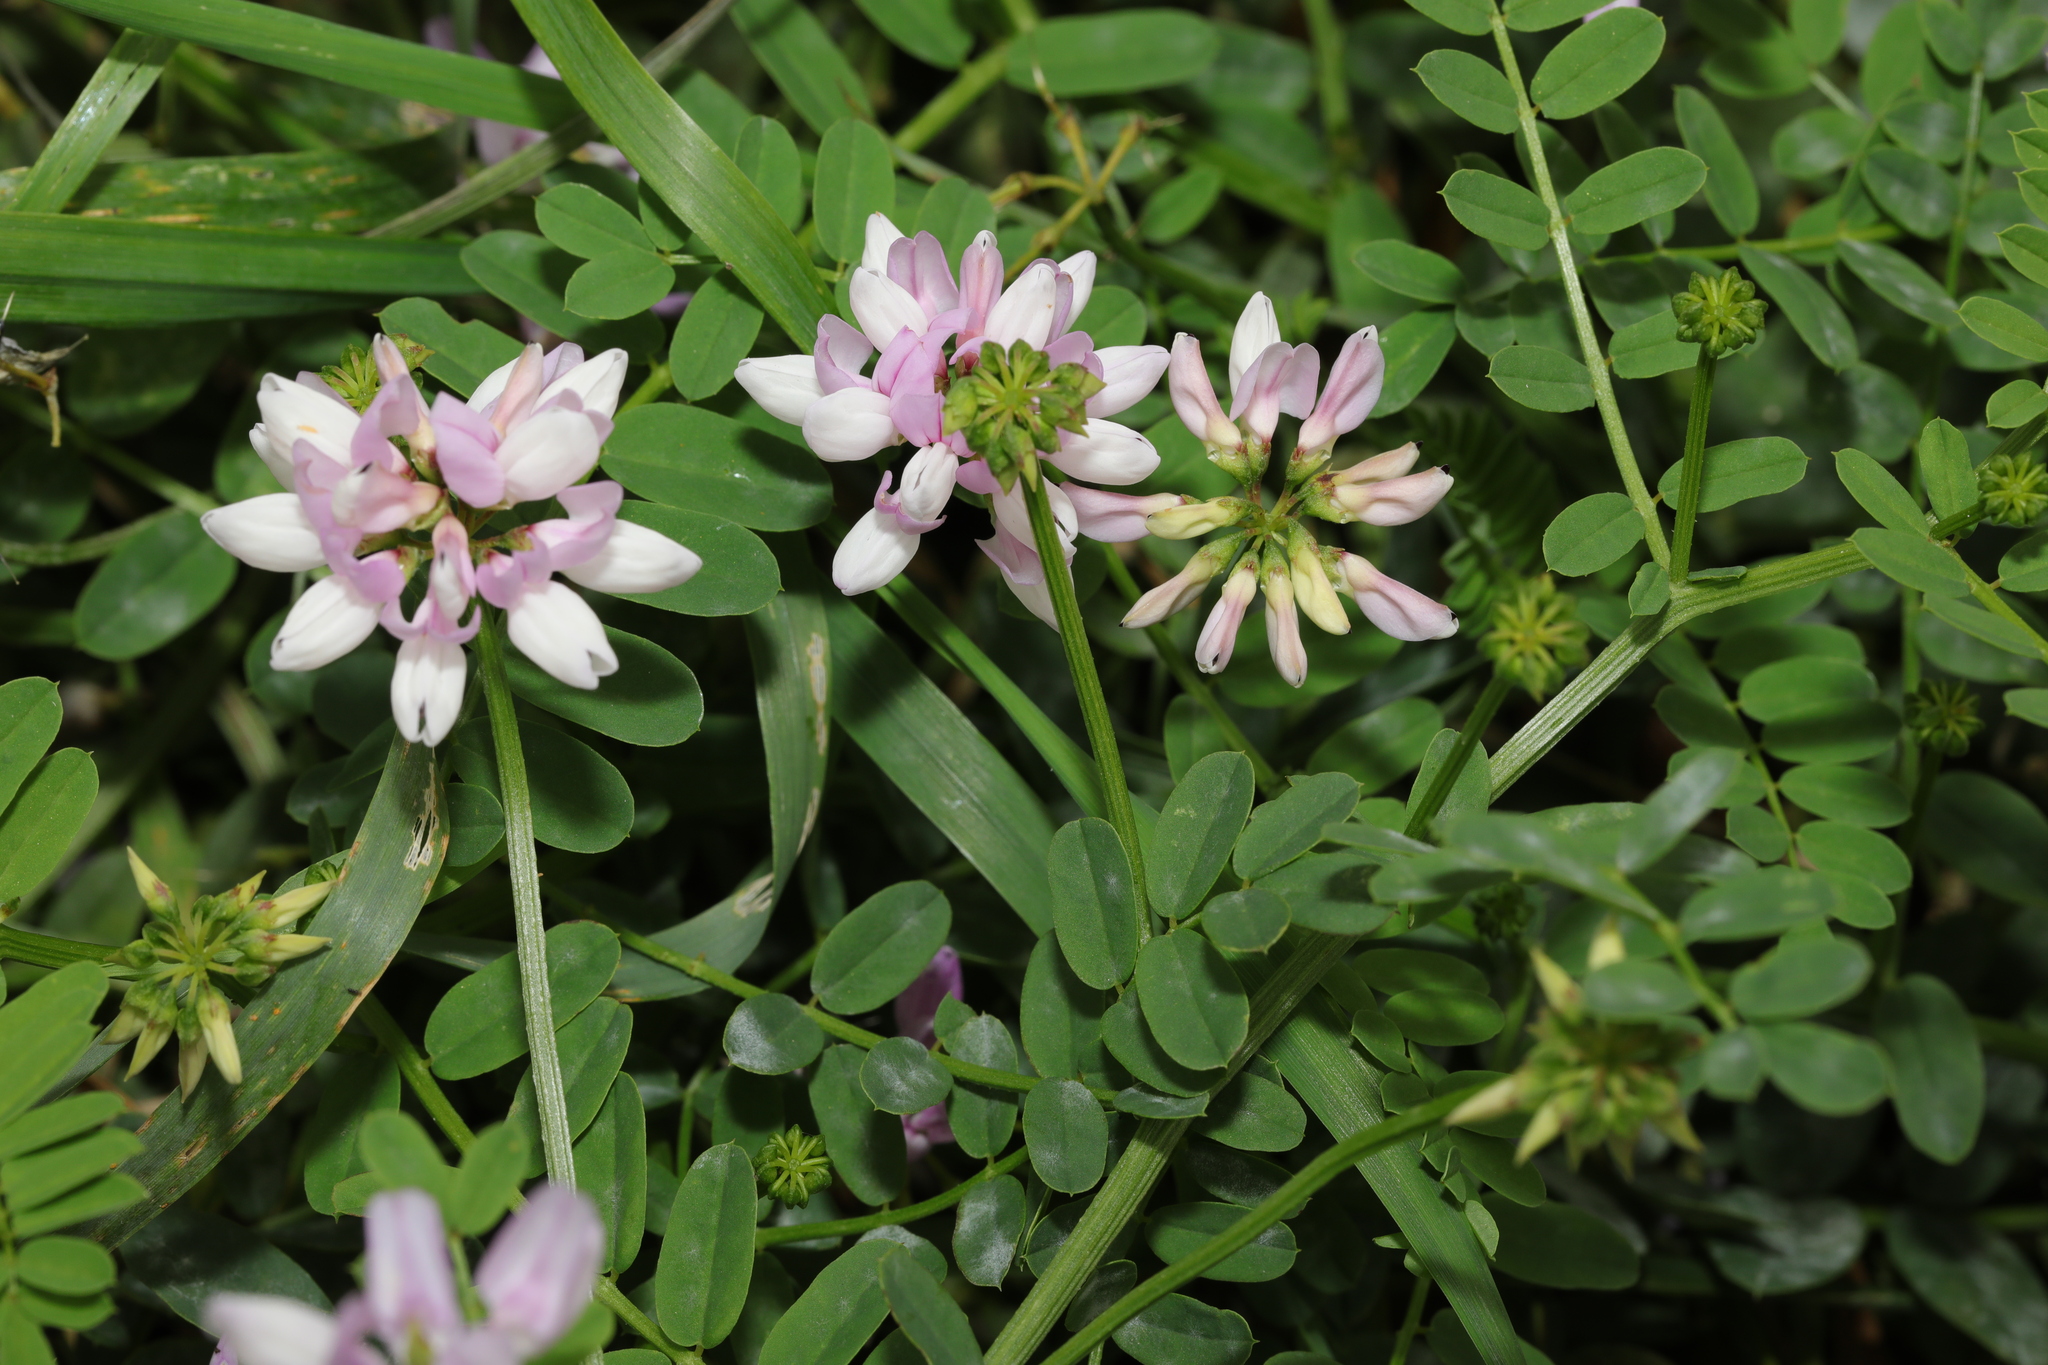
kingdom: Plantae
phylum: Tracheophyta
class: Magnoliopsida
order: Fabales
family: Fabaceae
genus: Coronilla
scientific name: Coronilla varia
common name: Crownvetch
